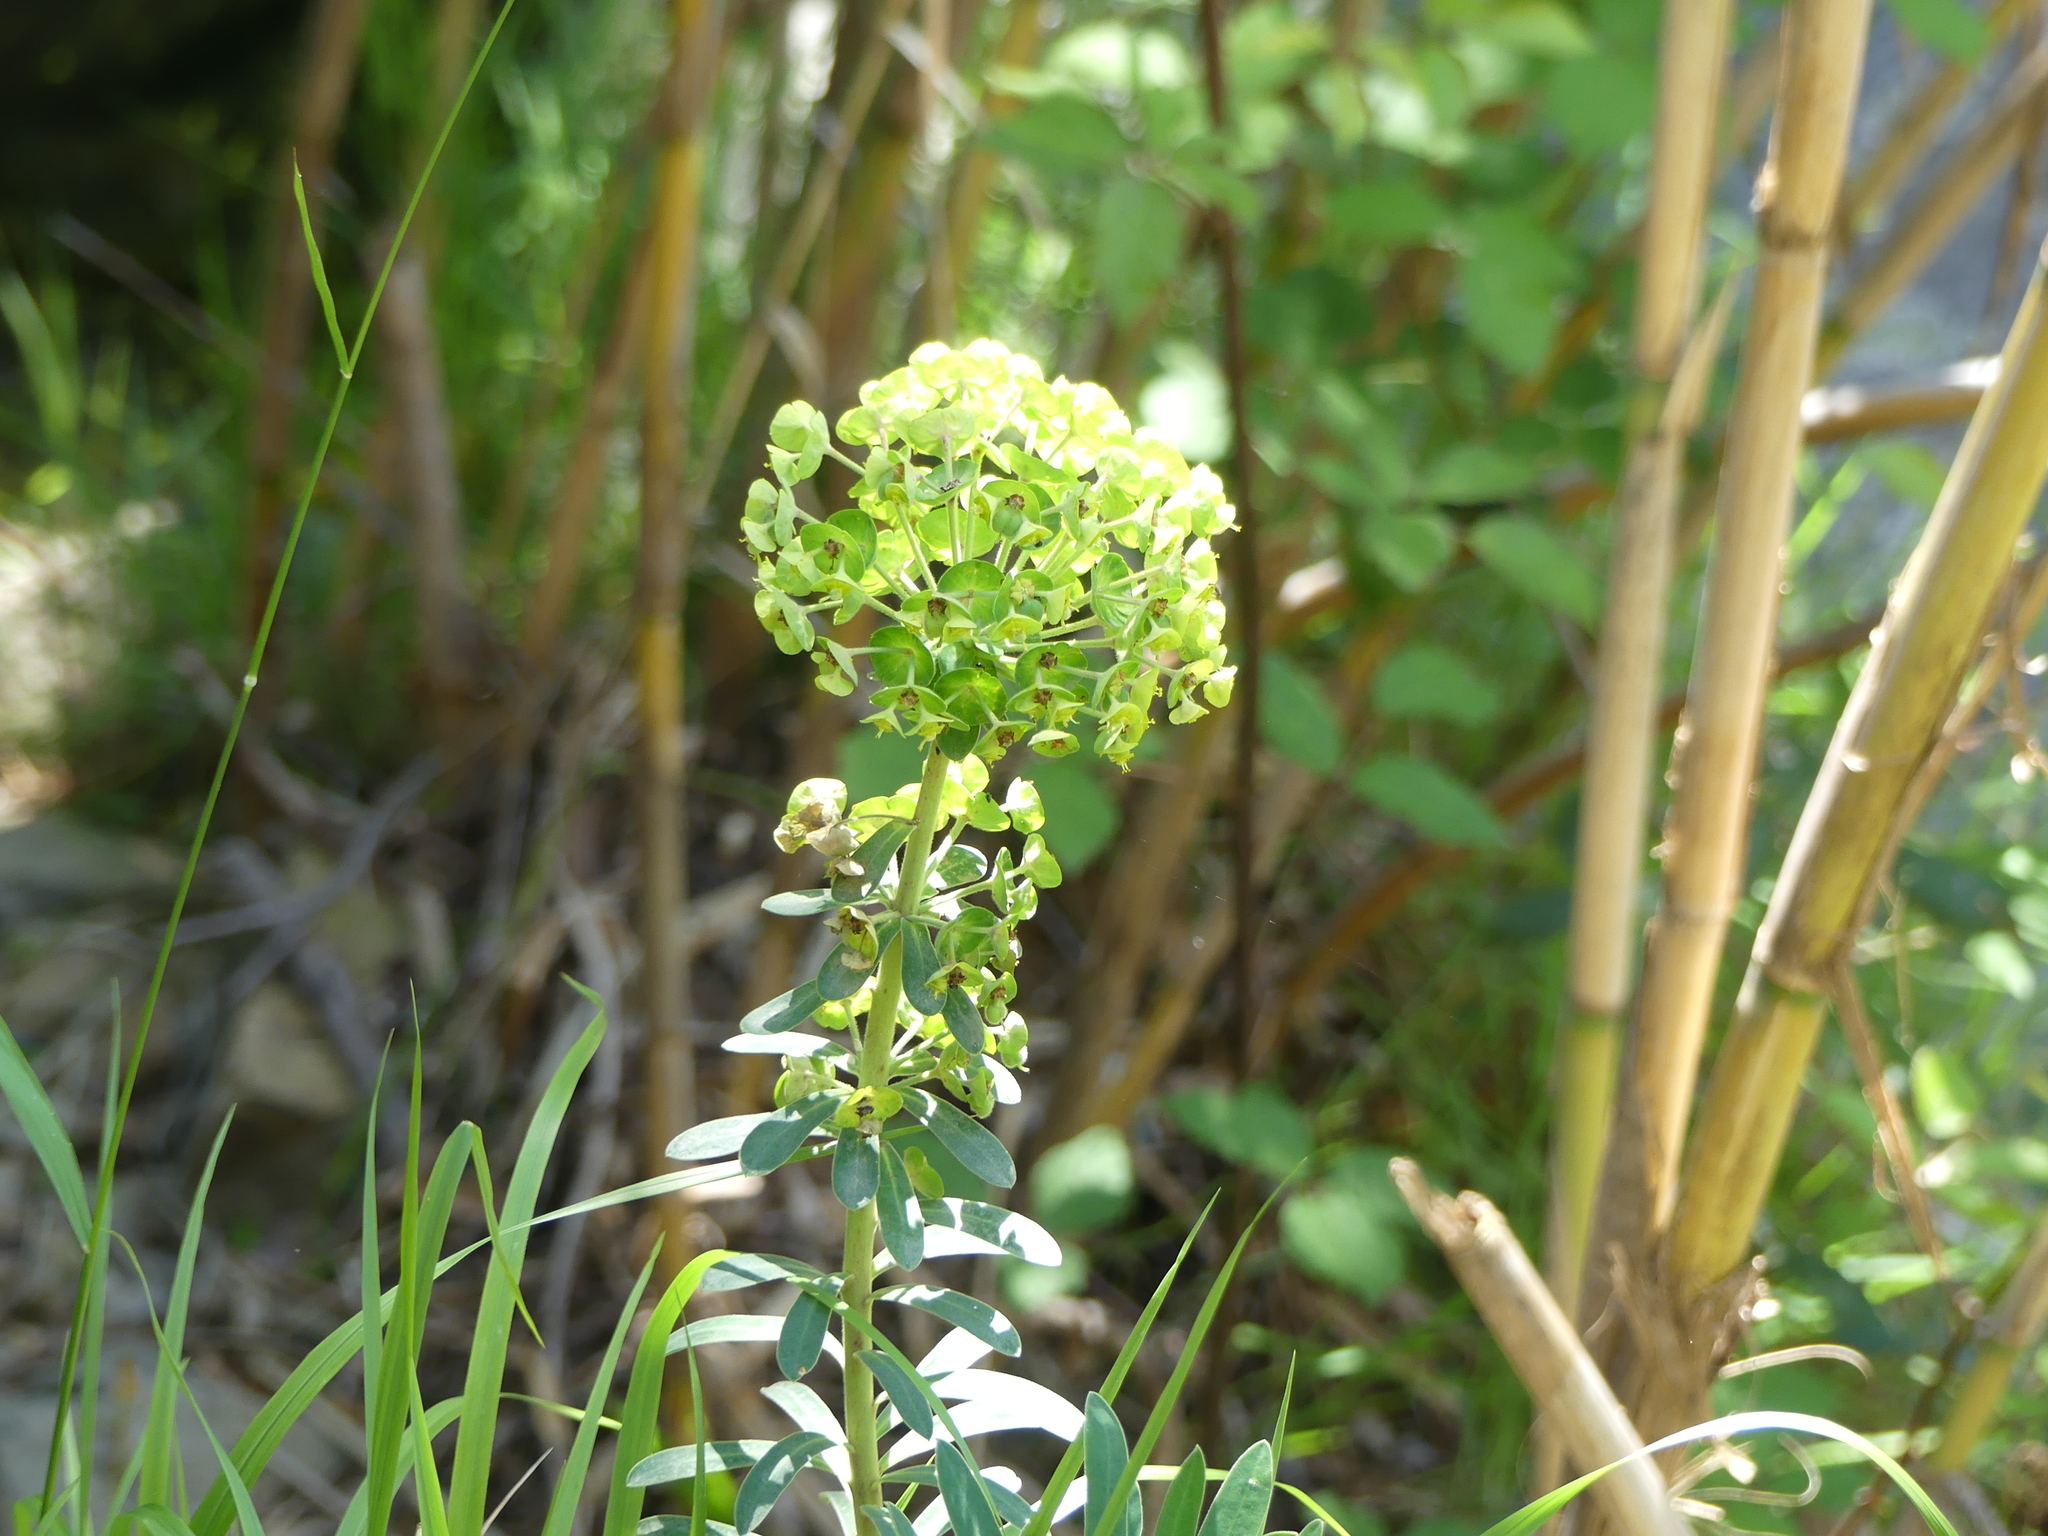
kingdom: Plantae
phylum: Tracheophyta
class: Magnoliopsida
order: Malpighiales
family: Euphorbiaceae
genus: Euphorbia
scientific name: Euphorbia characias
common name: Mediterranean spurge
